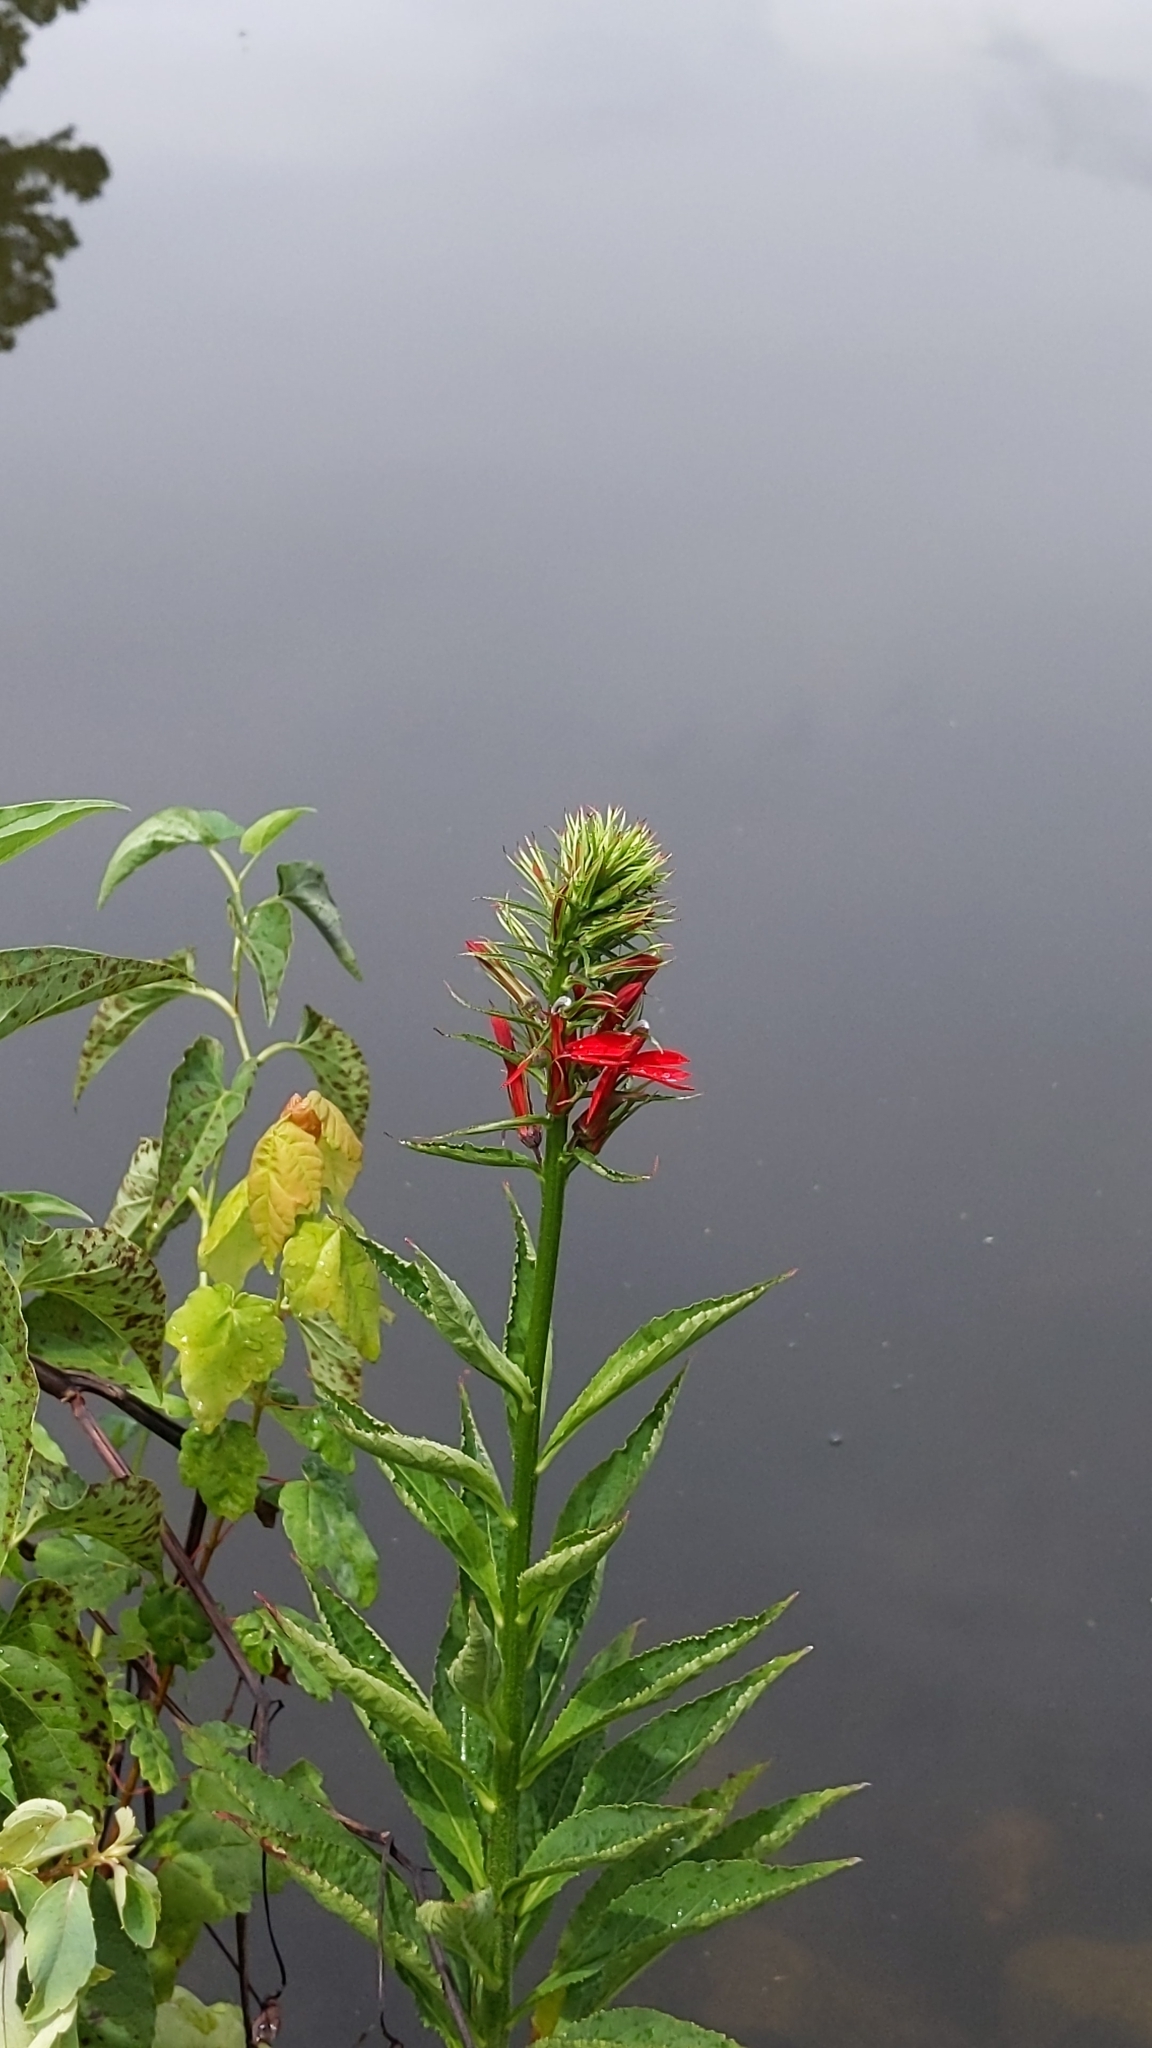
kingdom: Plantae
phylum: Tracheophyta
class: Magnoliopsida
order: Asterales
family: Campanulaceae
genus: Lobelia
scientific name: Lobelia cardinalis
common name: Cardinal flower
